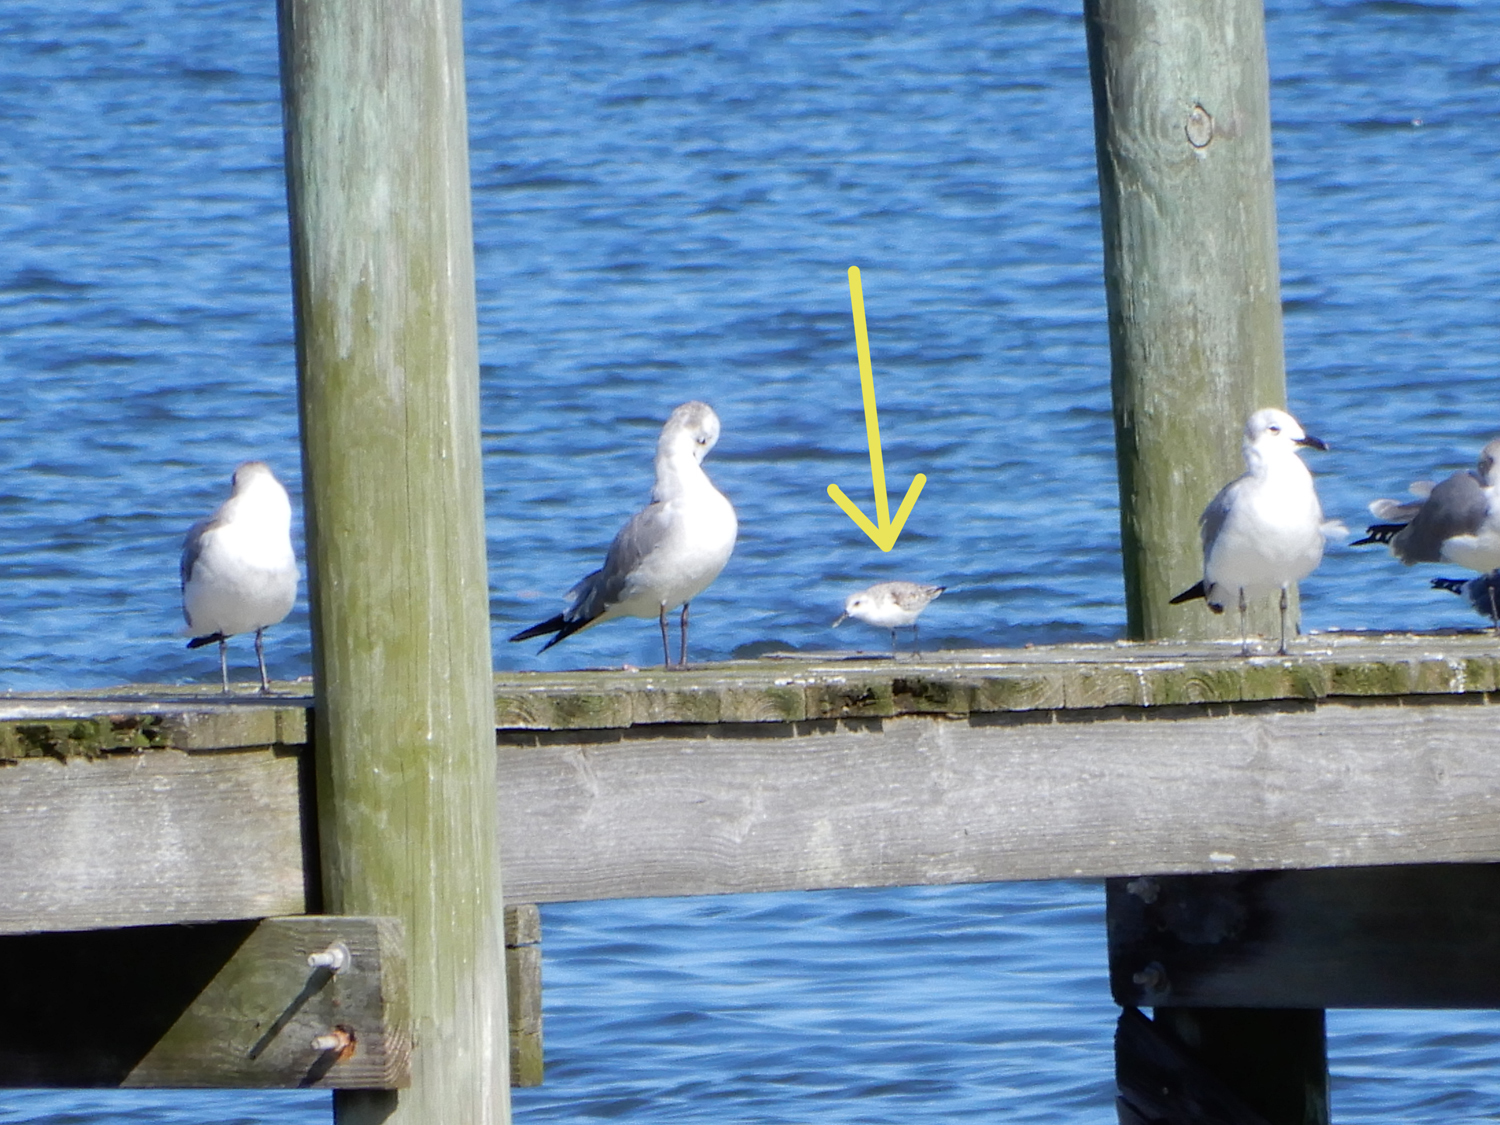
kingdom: Animalia
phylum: Chordata
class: Aves
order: Charadriiformes
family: Scolopacidae
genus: Calidris
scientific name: Calidris alba
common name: Sanderling
